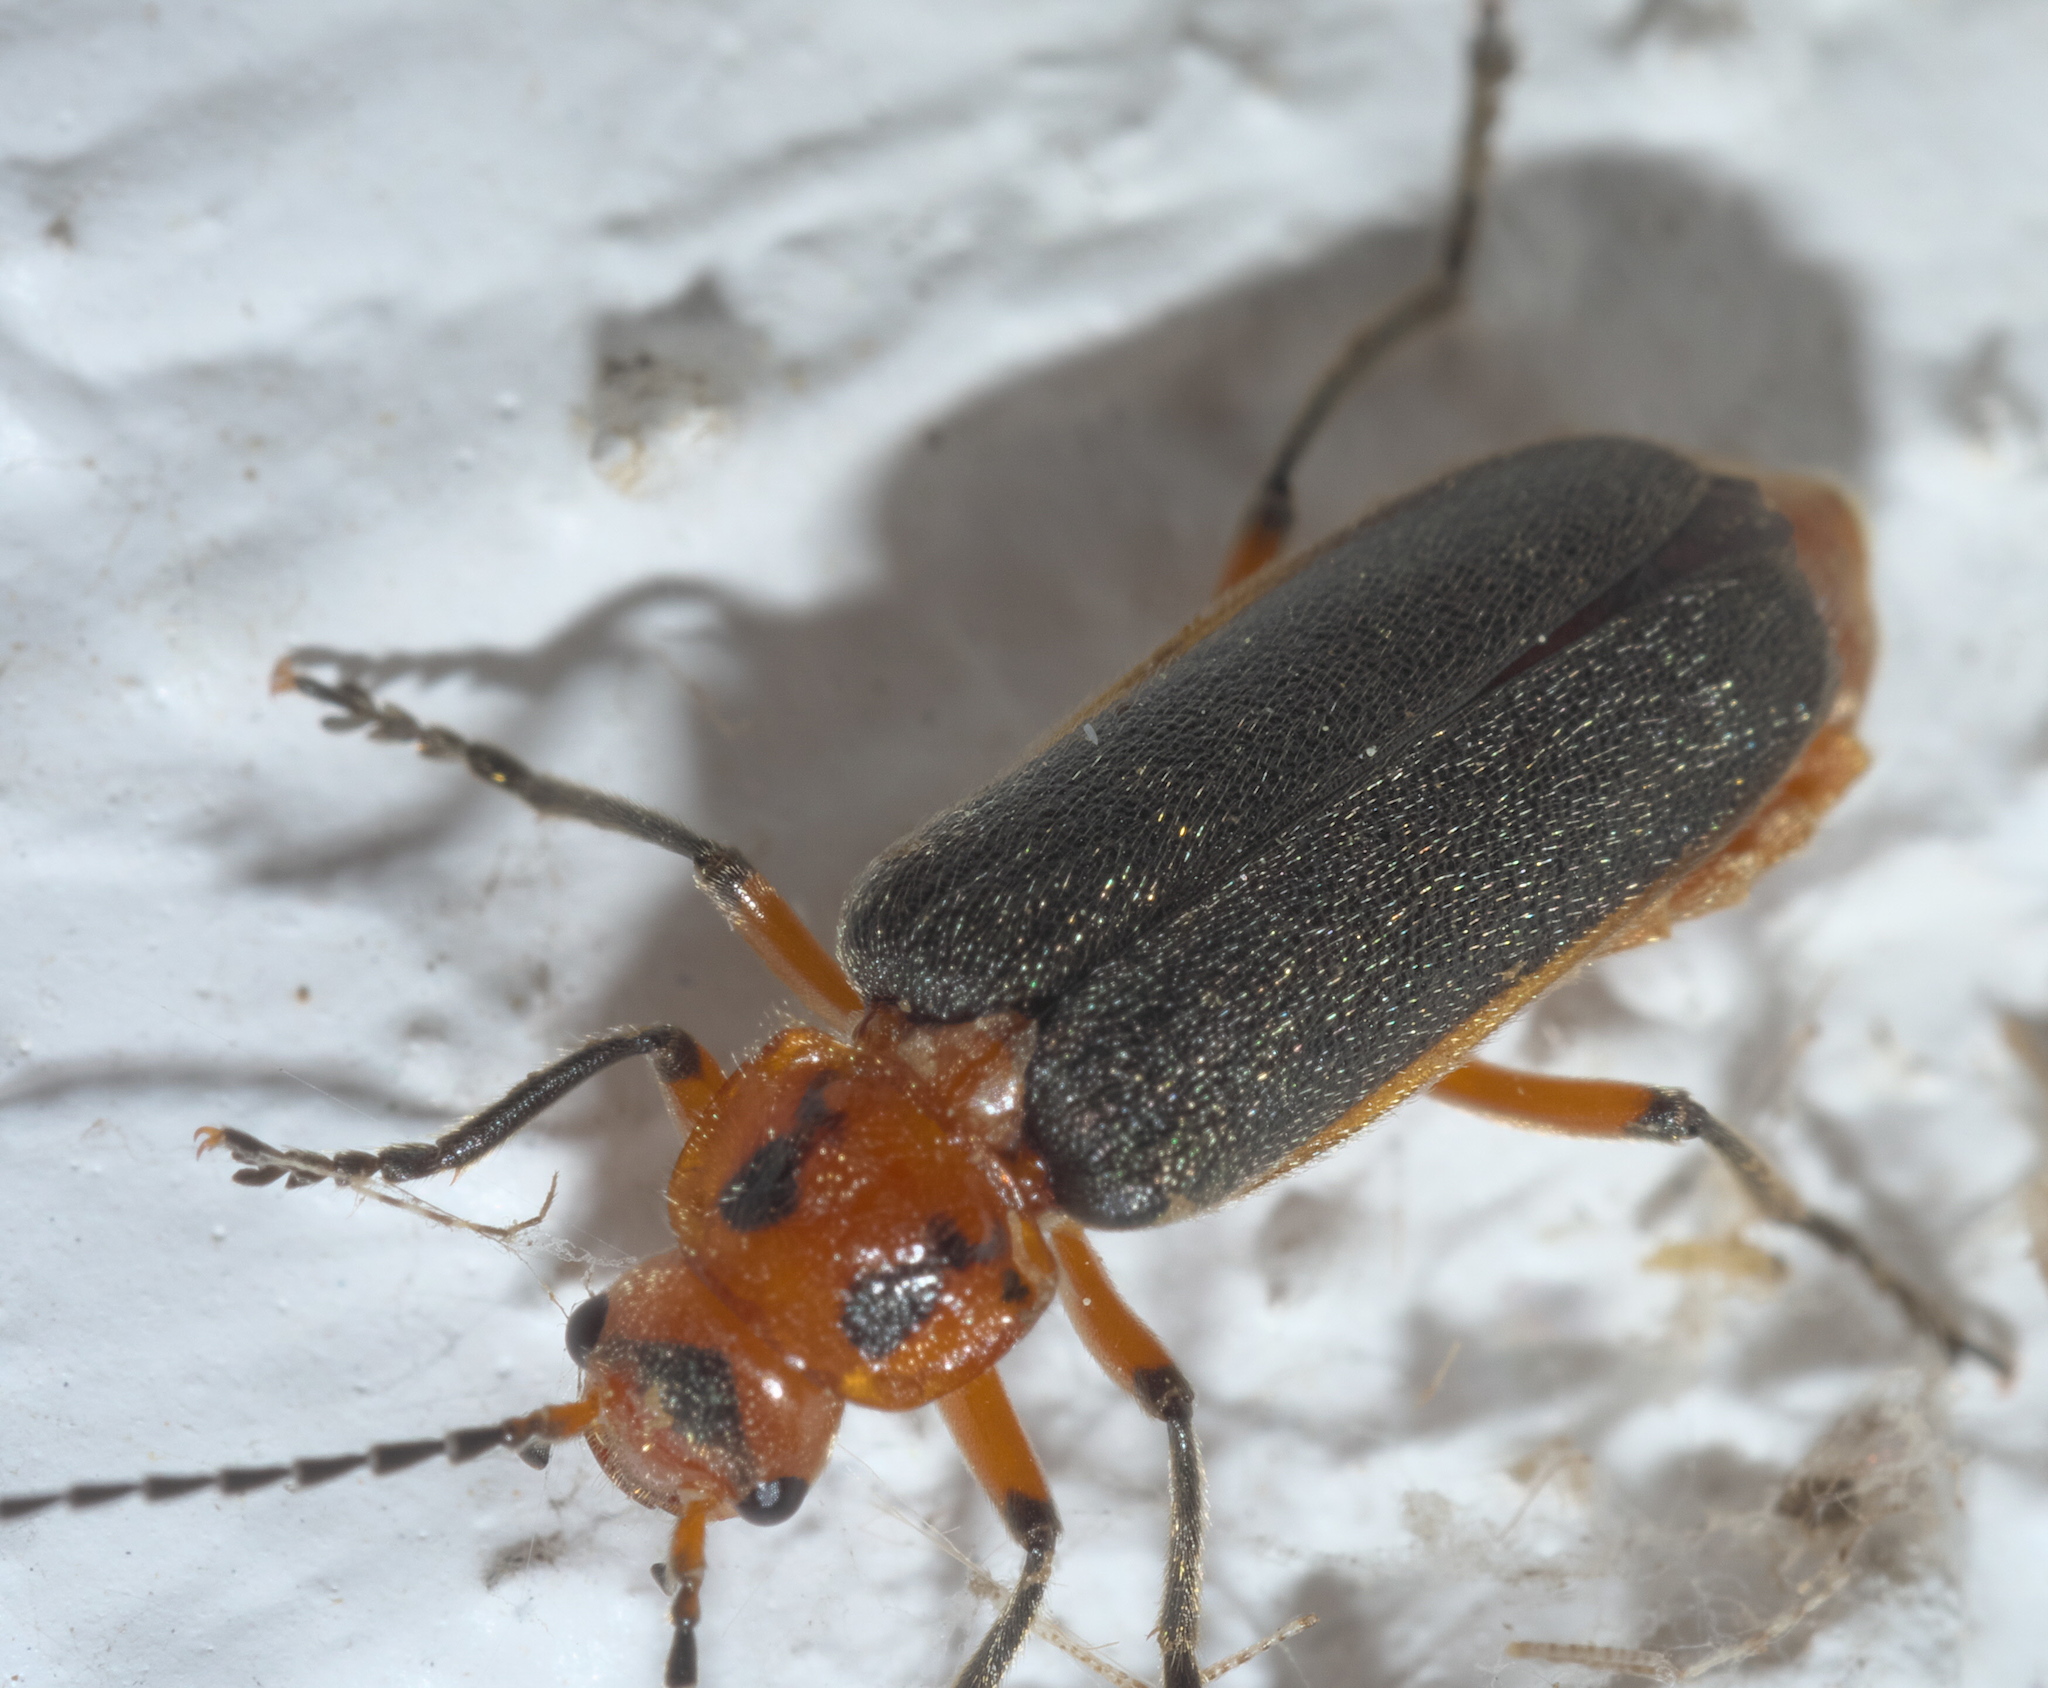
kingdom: Animalia
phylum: Arthropoda
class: Insecta
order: Coleoptera
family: Cantharidae
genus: Atalantycha
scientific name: Atalantycha bilineata
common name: Two-lined leatherwing
